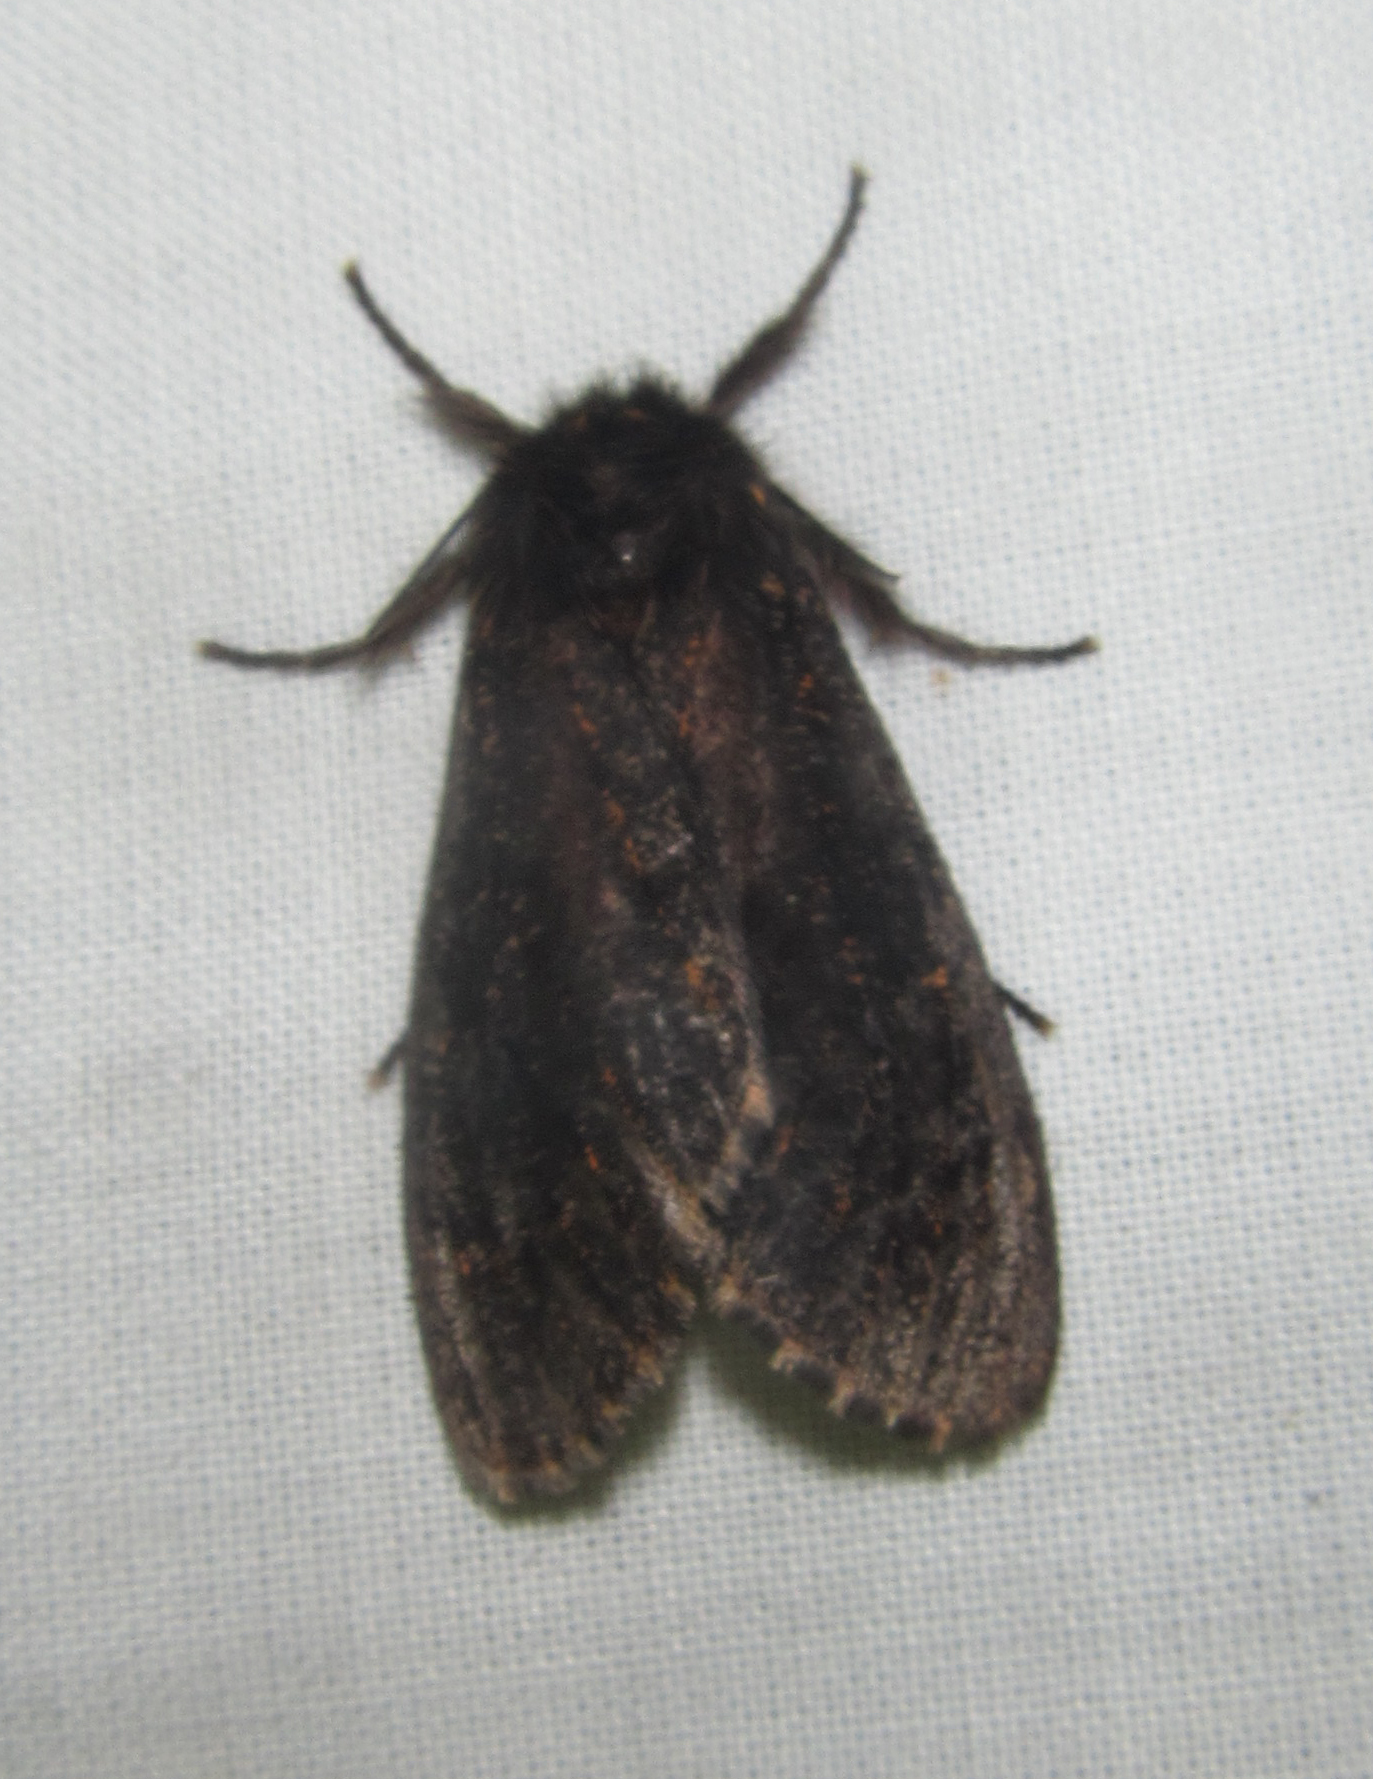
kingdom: Animalia
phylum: Arthropoda
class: Insecta
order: Lepidoptera
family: Erebidae
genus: Polymona
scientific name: Polymona rufifemur
